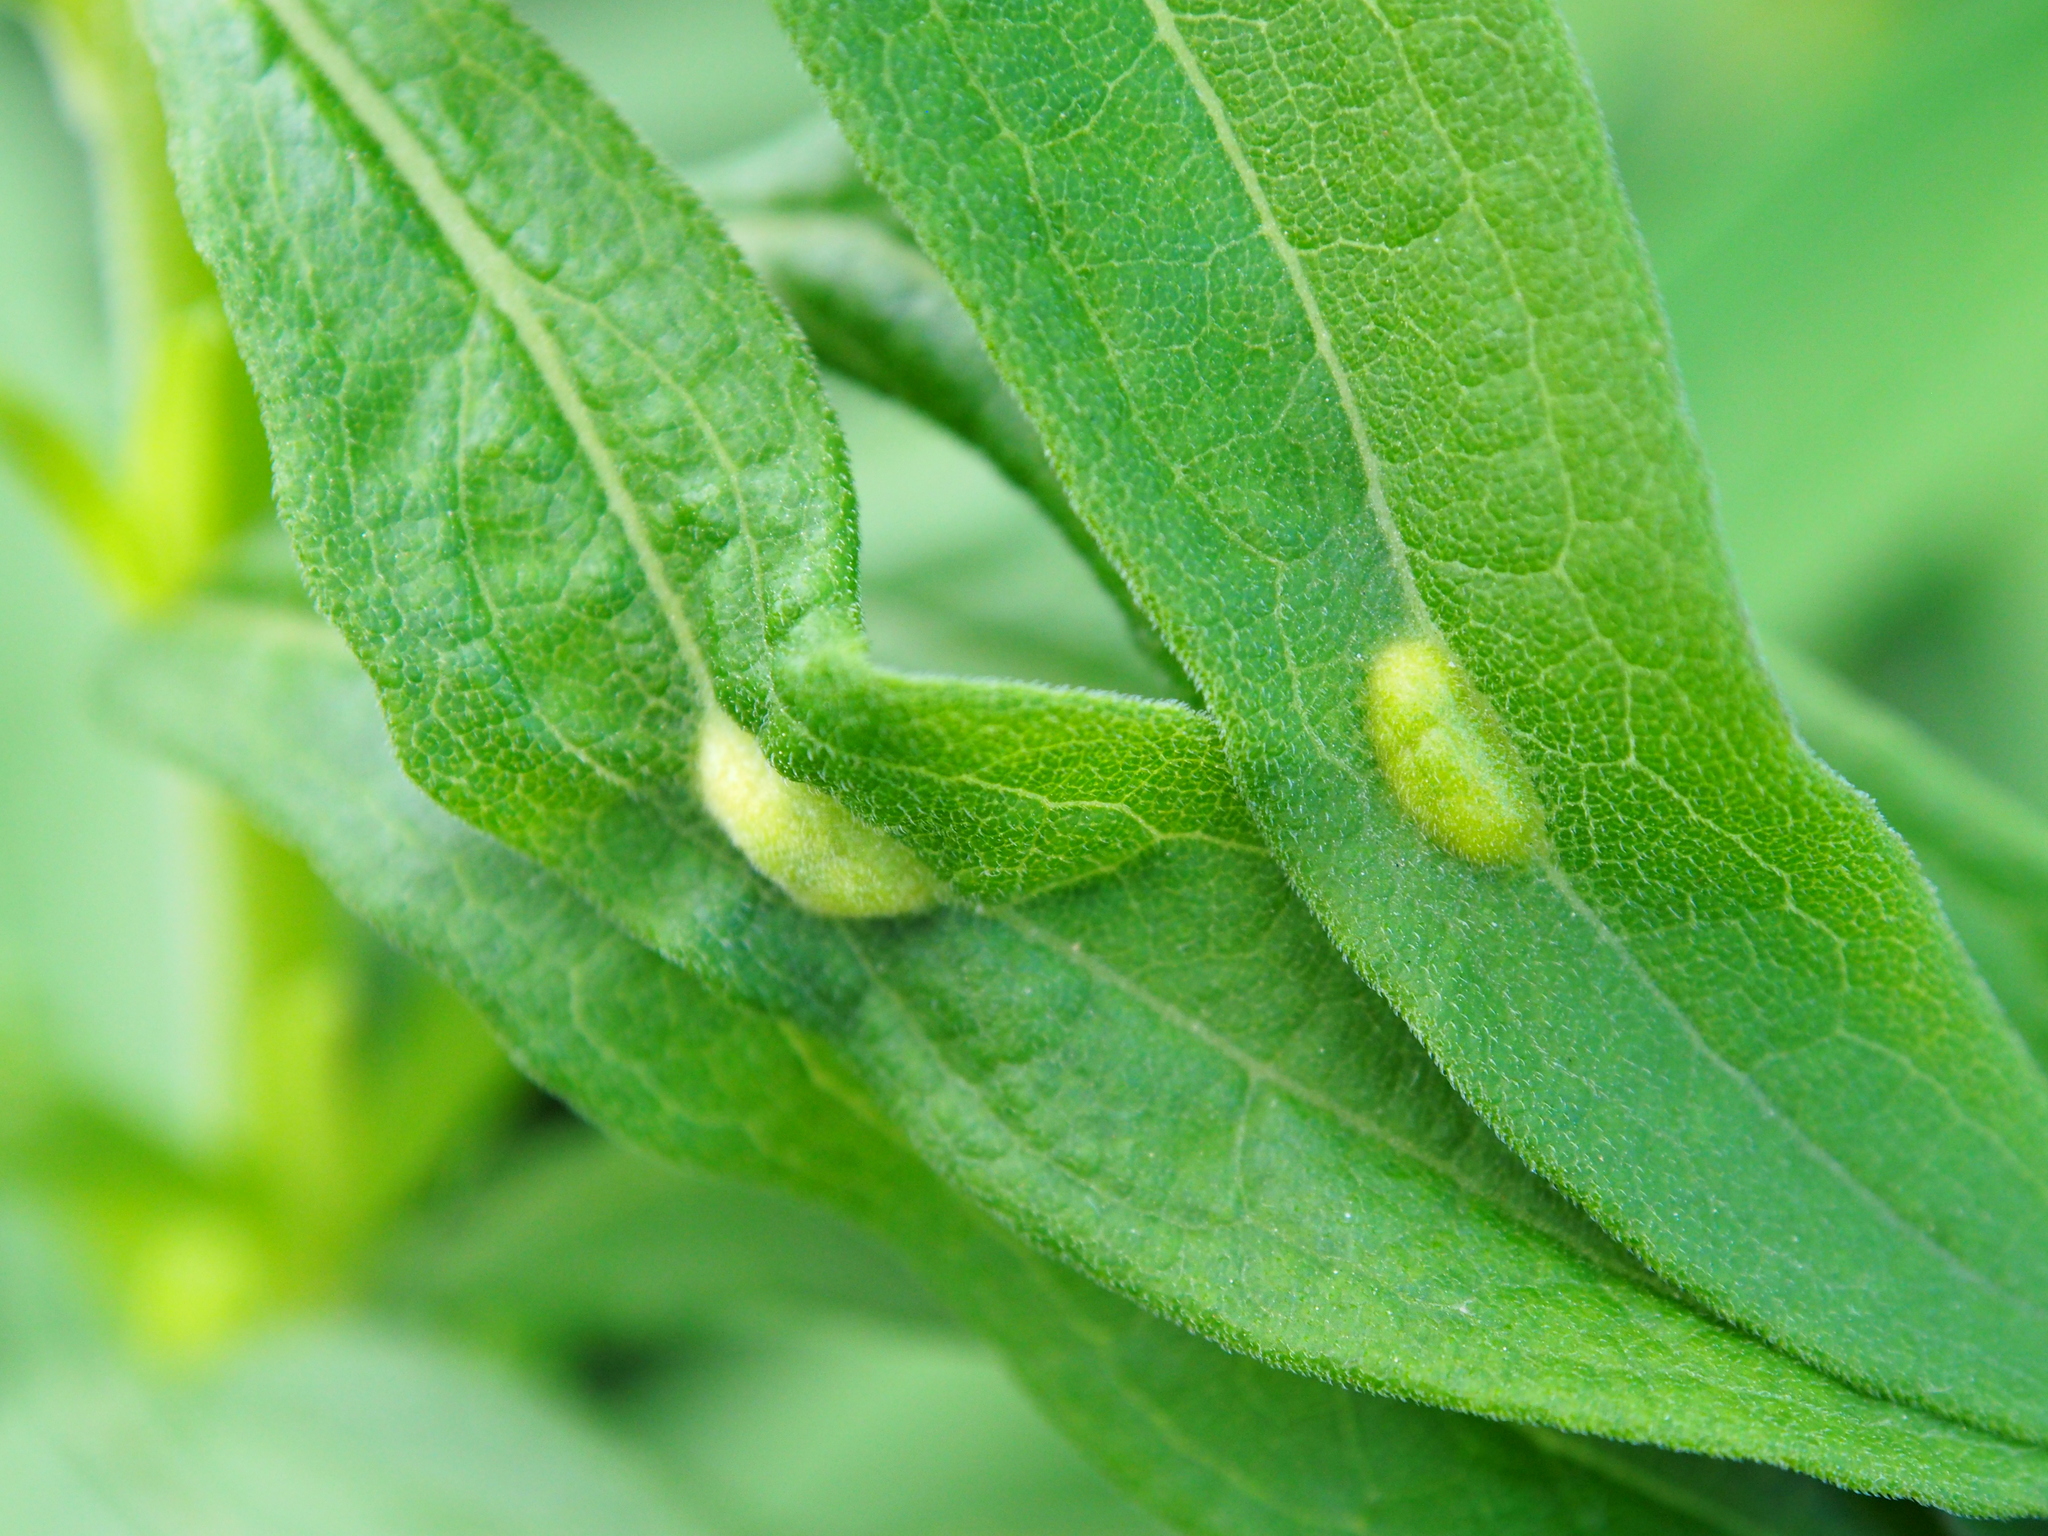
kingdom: Animalia
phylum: Arthropoda
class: Insecta
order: Diptera
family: Cecidomyiidae
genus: Asphondylia
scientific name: Asphondylia solidaginis
